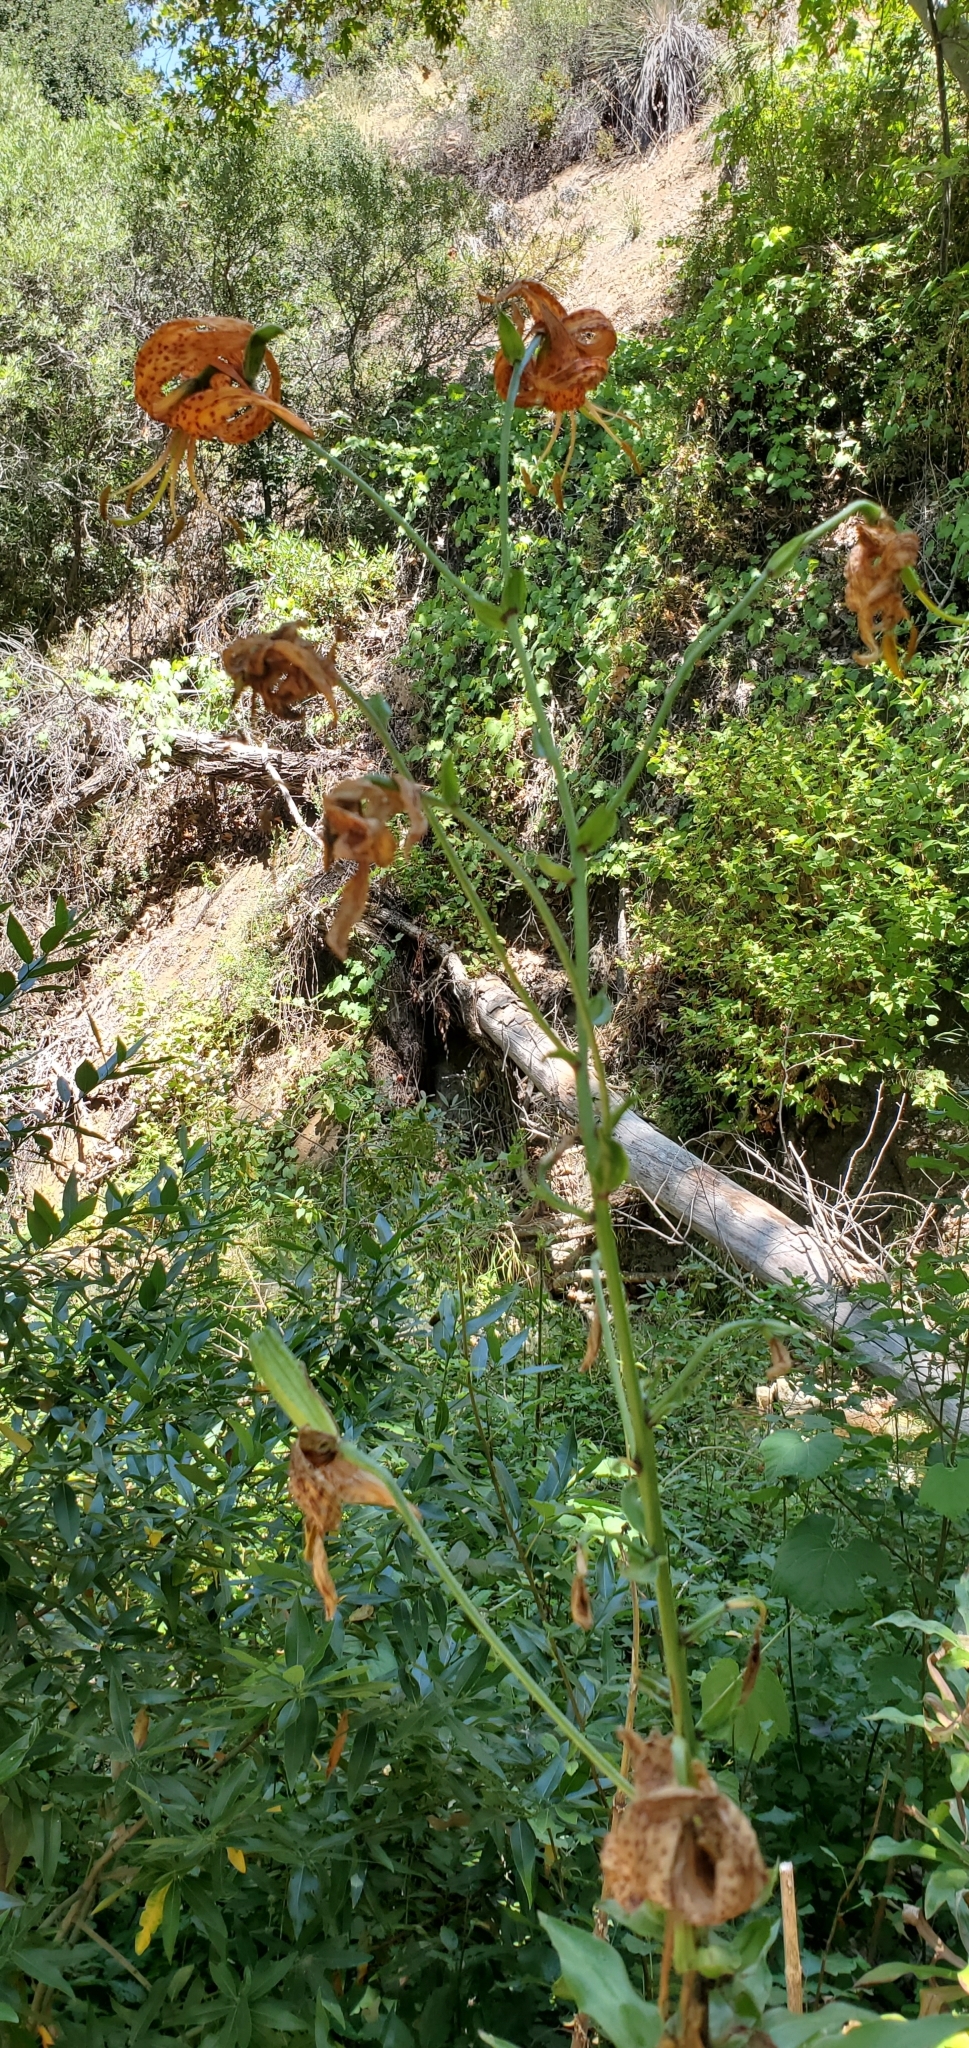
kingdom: Plantae
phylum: Tracheophyta
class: Liliopsida
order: Liliales
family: Liliaceae
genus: Lilium
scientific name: Lilium humboldtii
